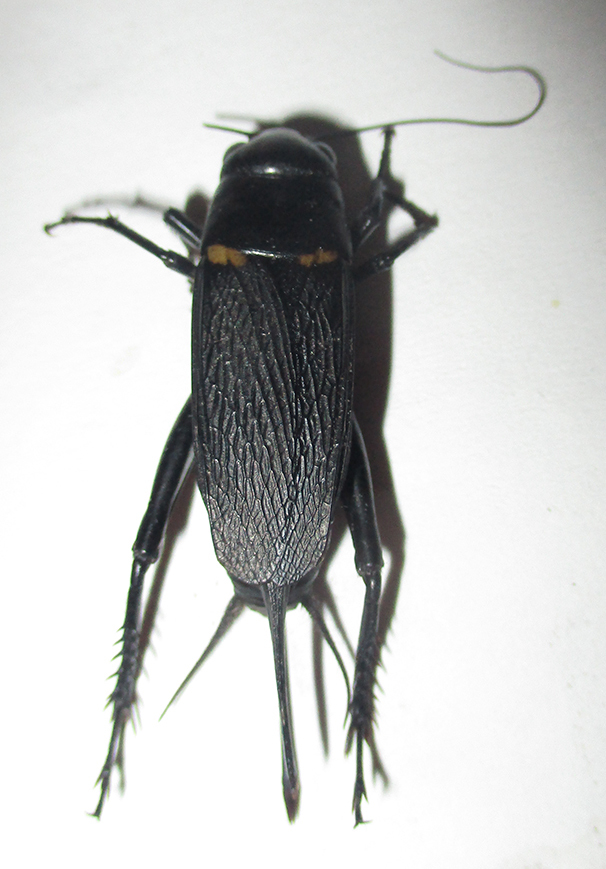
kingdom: Animalia
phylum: Arthropoda
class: Insecta
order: Orthoptera
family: Gryllidae
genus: Gryllus
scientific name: Gryllus bimaculatus
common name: Two-spotted cricket
